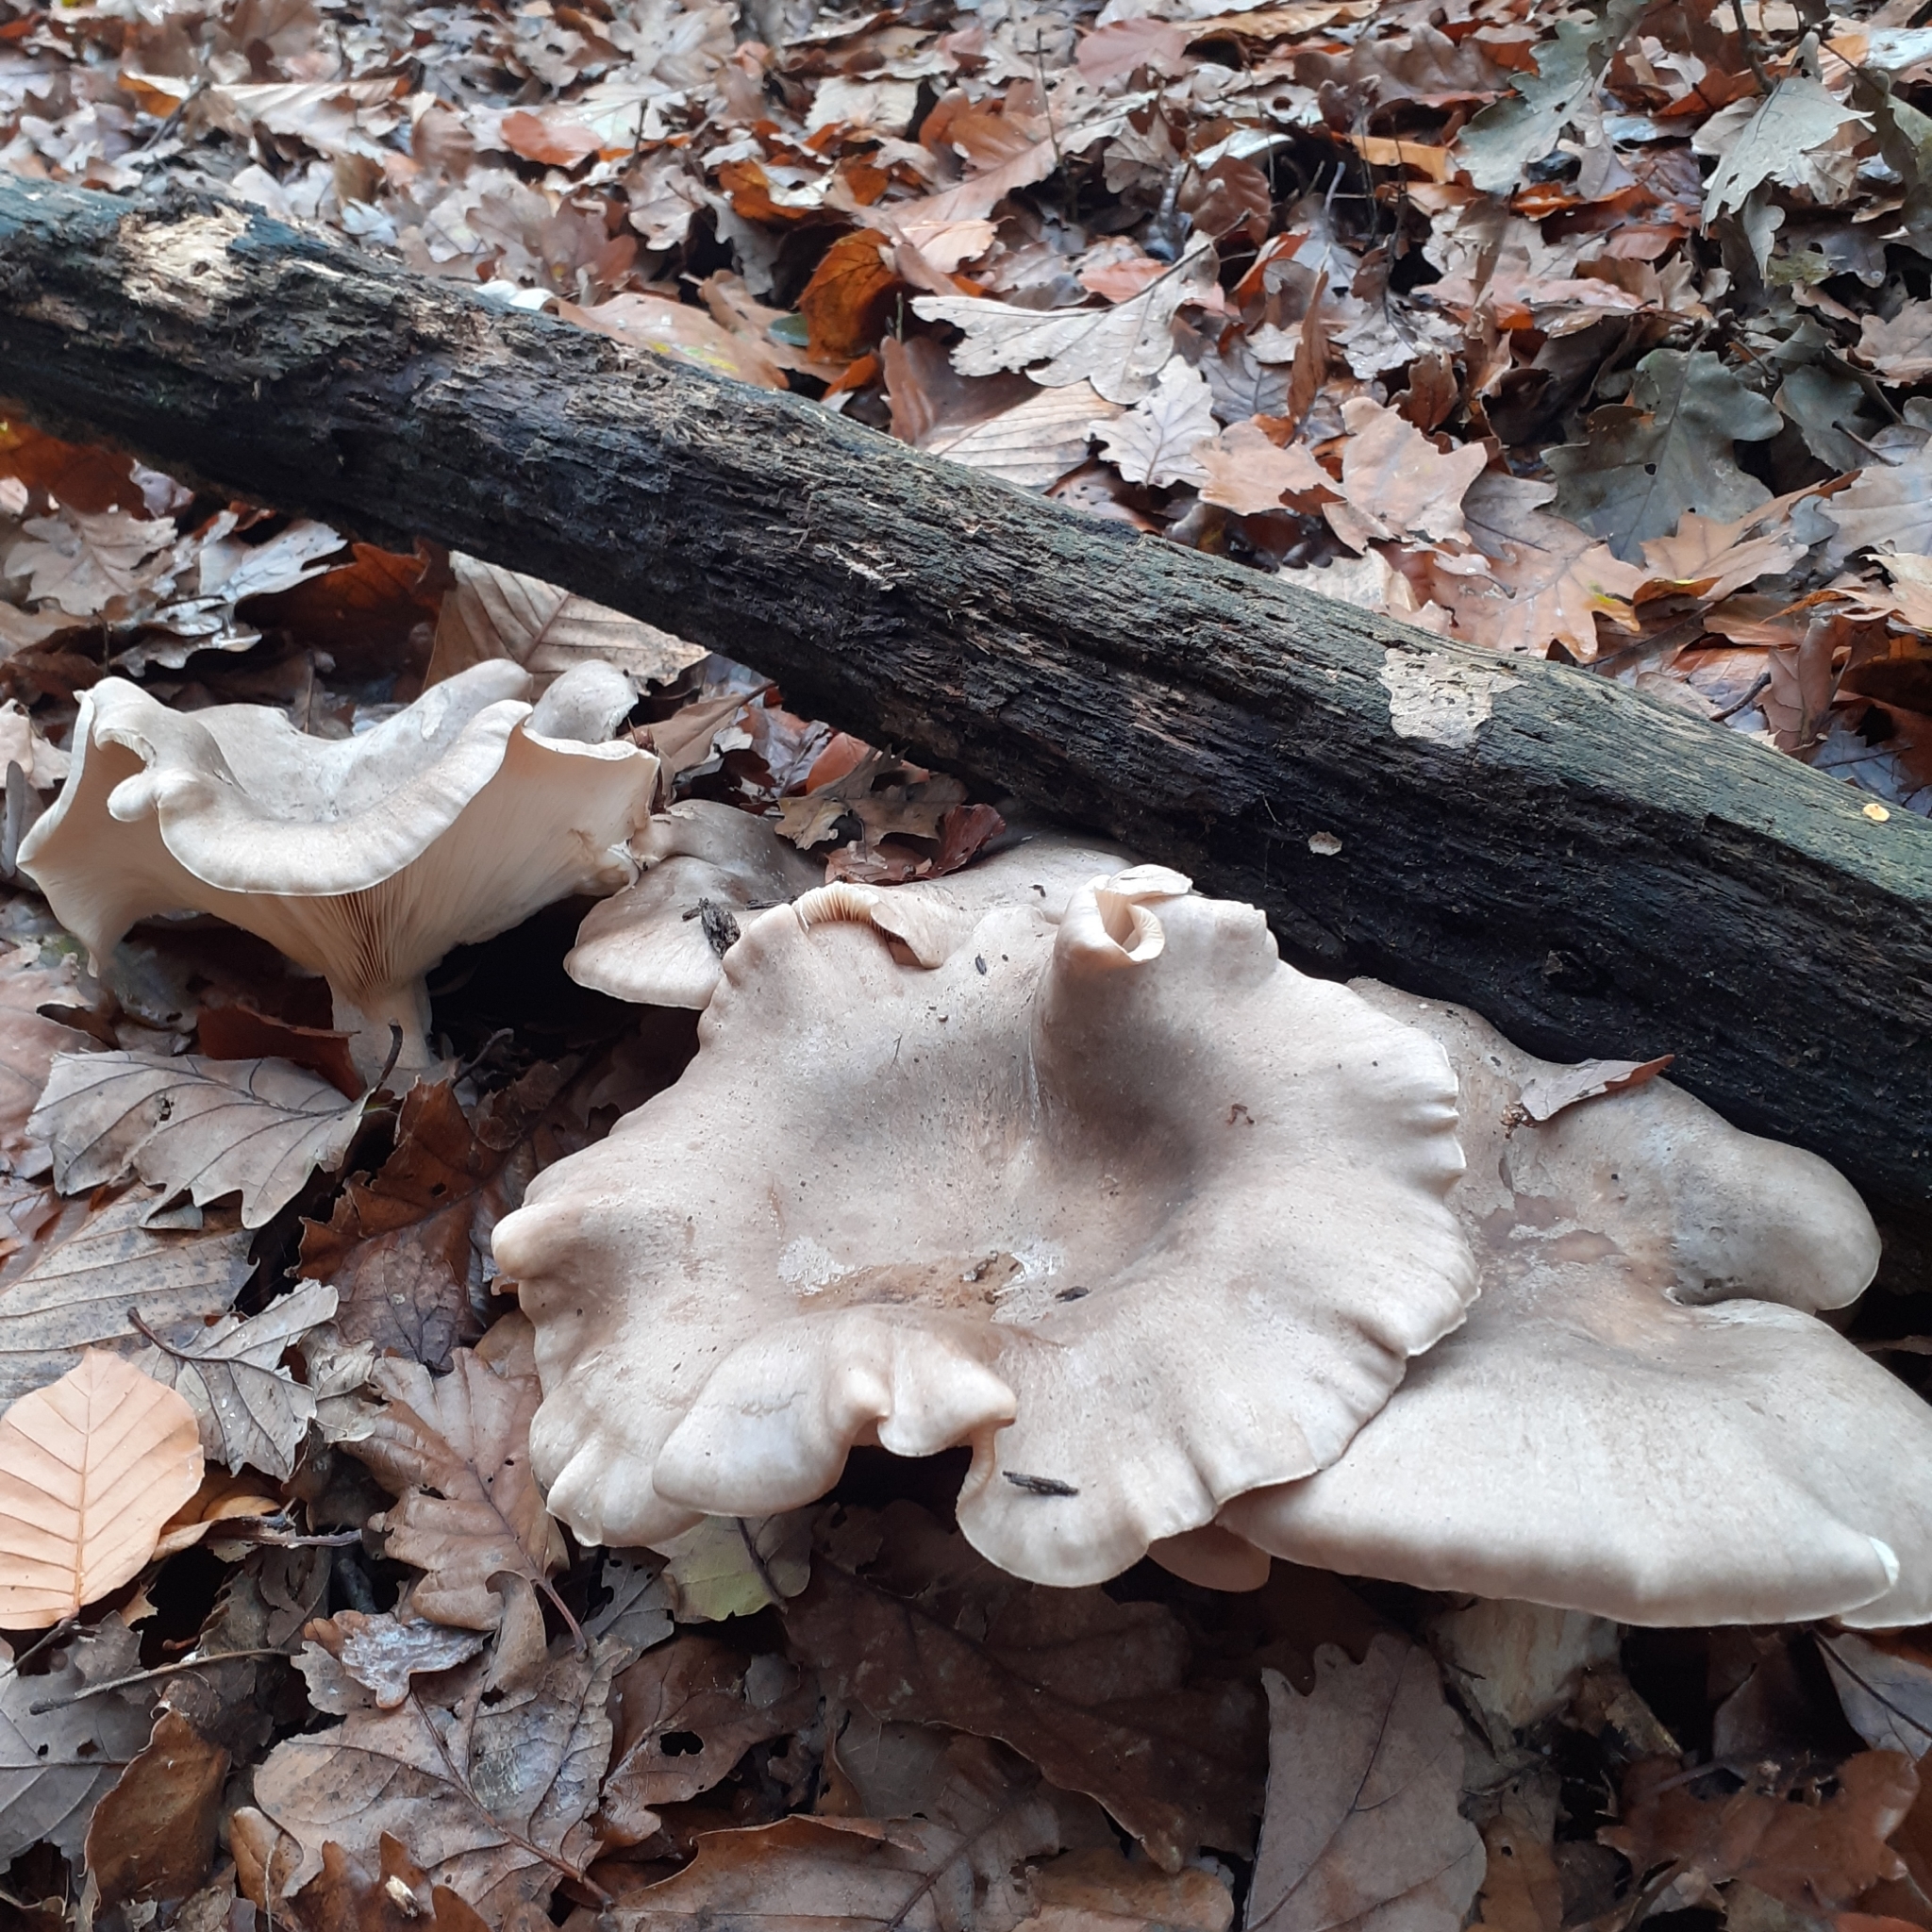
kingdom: Fungi
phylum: Basidiomycota
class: Agaricomycetes
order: Agaricales
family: Tricholomataceae
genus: Clitocybe
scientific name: Clitocybe nebularis
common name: Clouded agaric
